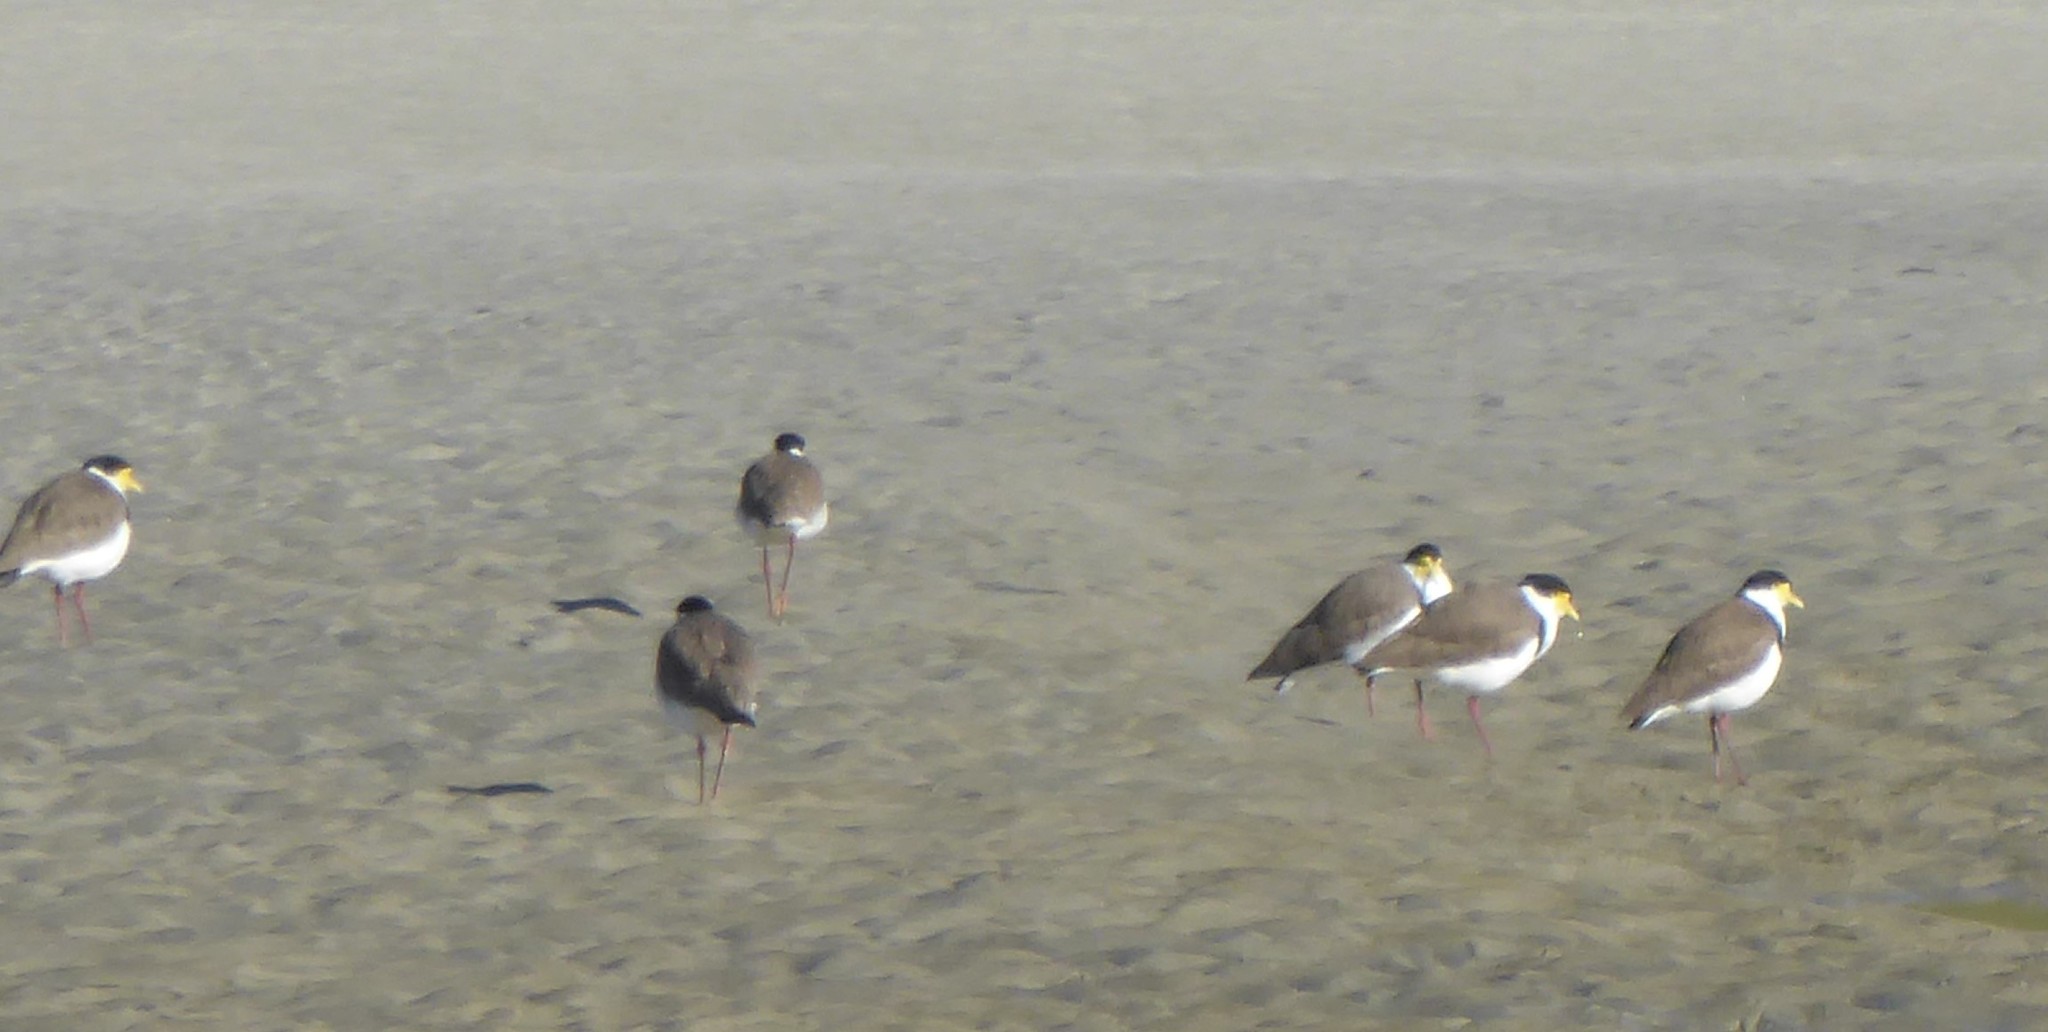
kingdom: Animalia
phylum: Chordata
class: Aves
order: Charadriiformes
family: Charadriidae
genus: Vanellus
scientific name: Vanellus miles
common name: Masked lapwing
